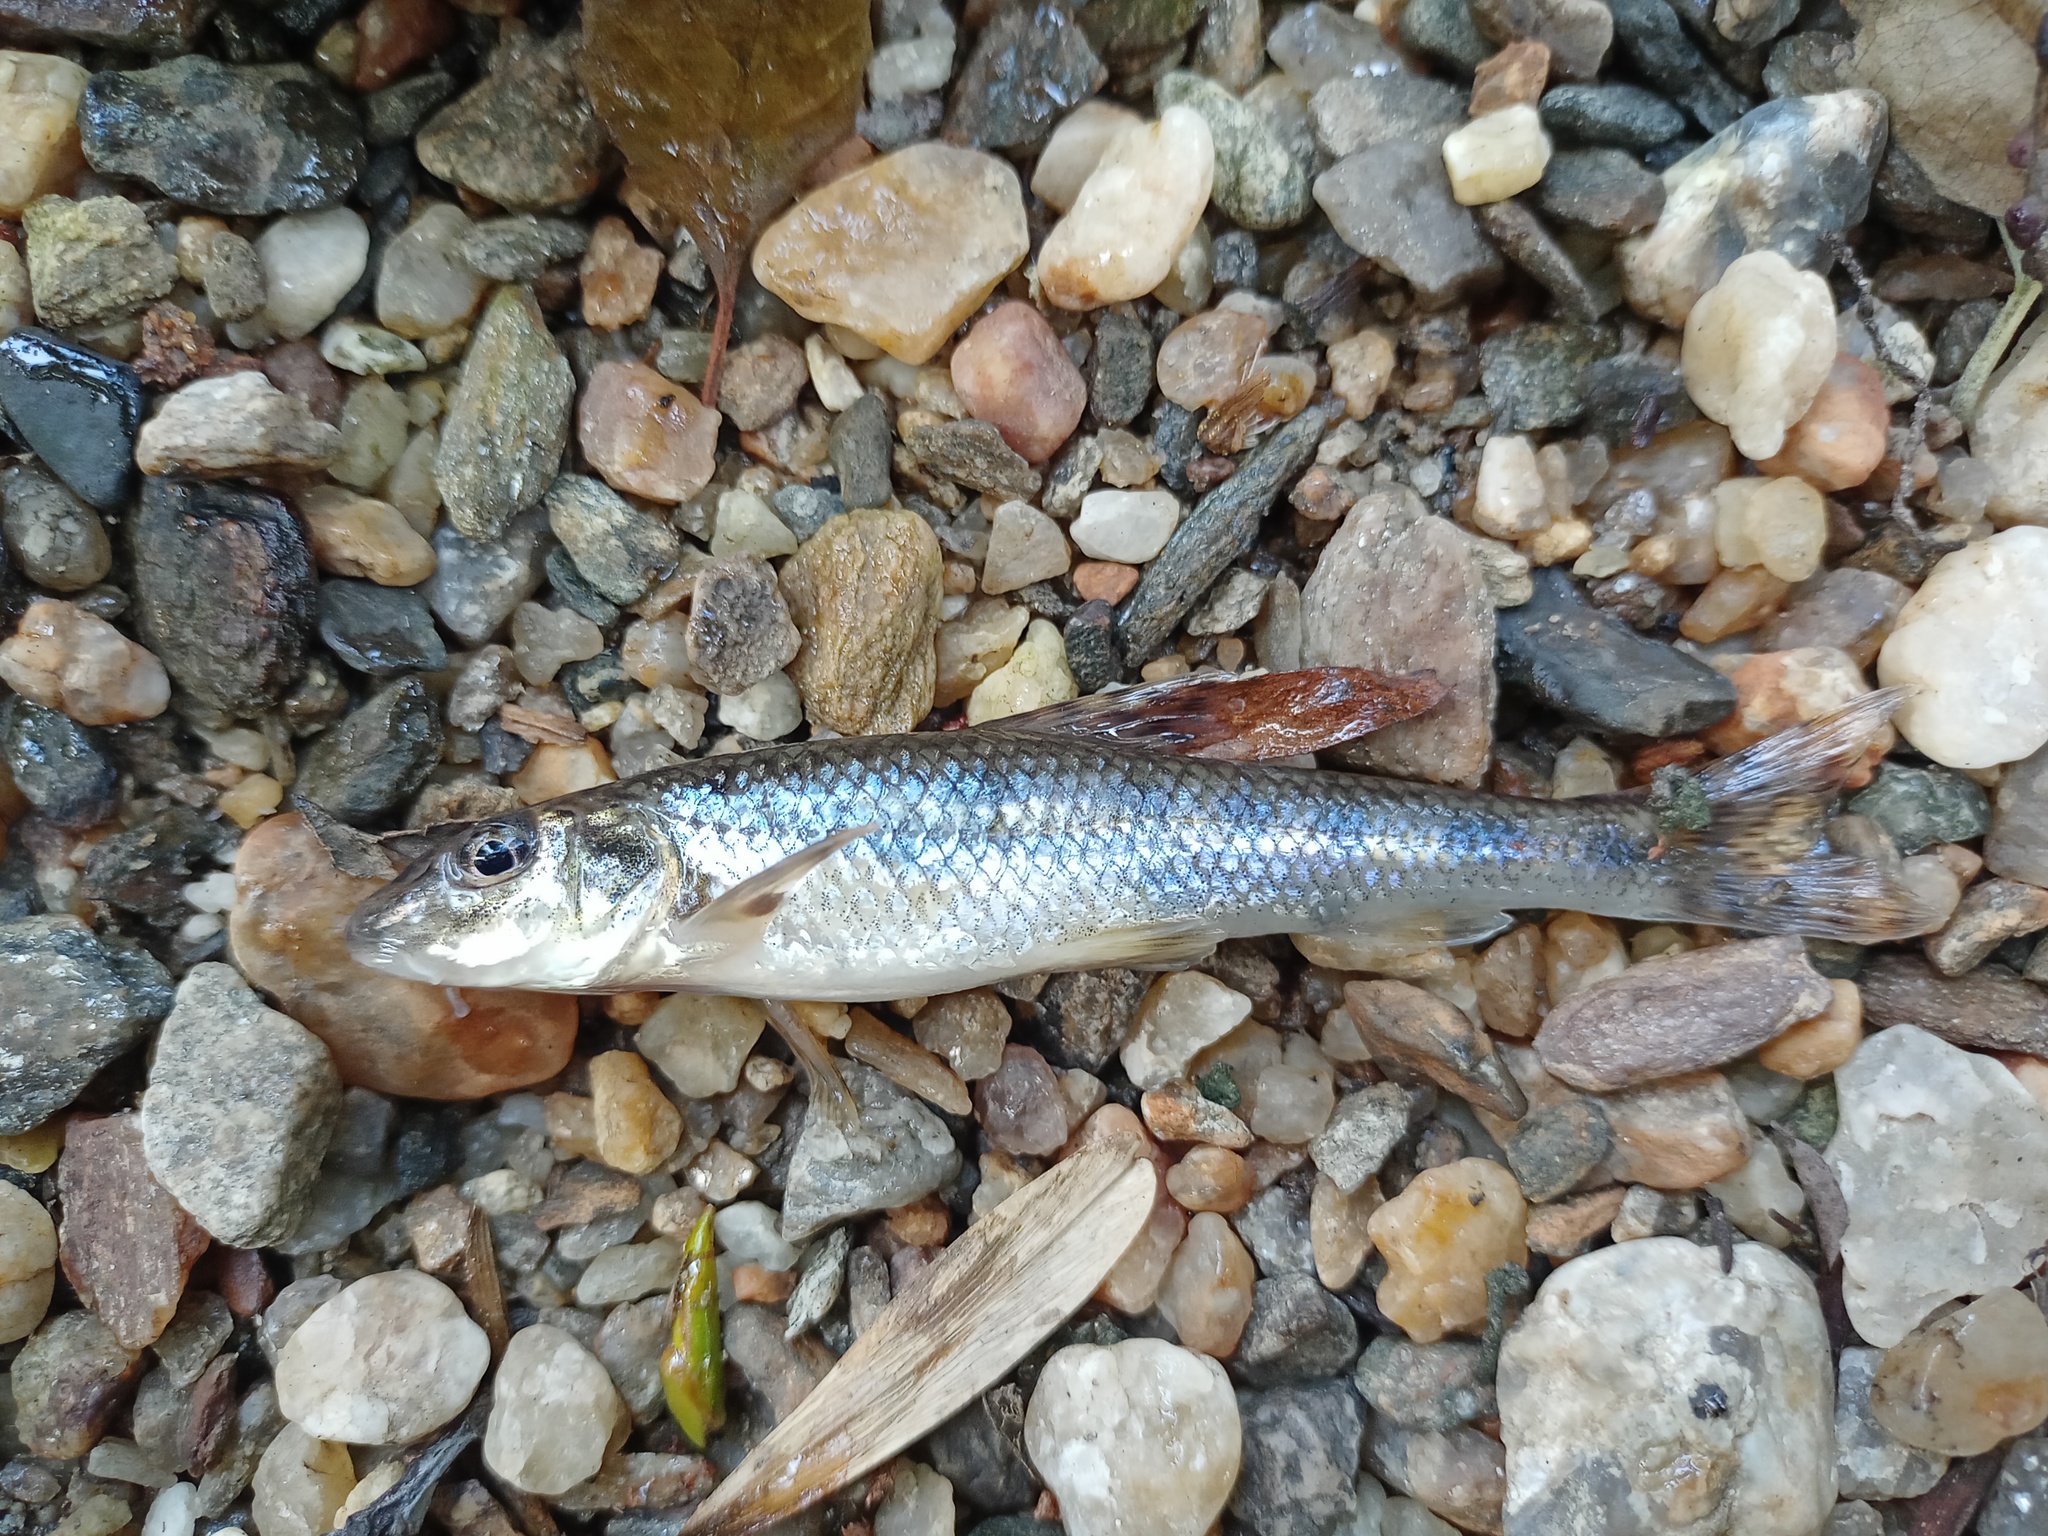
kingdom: Animalia
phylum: Chordata
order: Cypriniformes
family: Cyprinidae
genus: Gobio
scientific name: Gobio gobio
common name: Gudgeon
